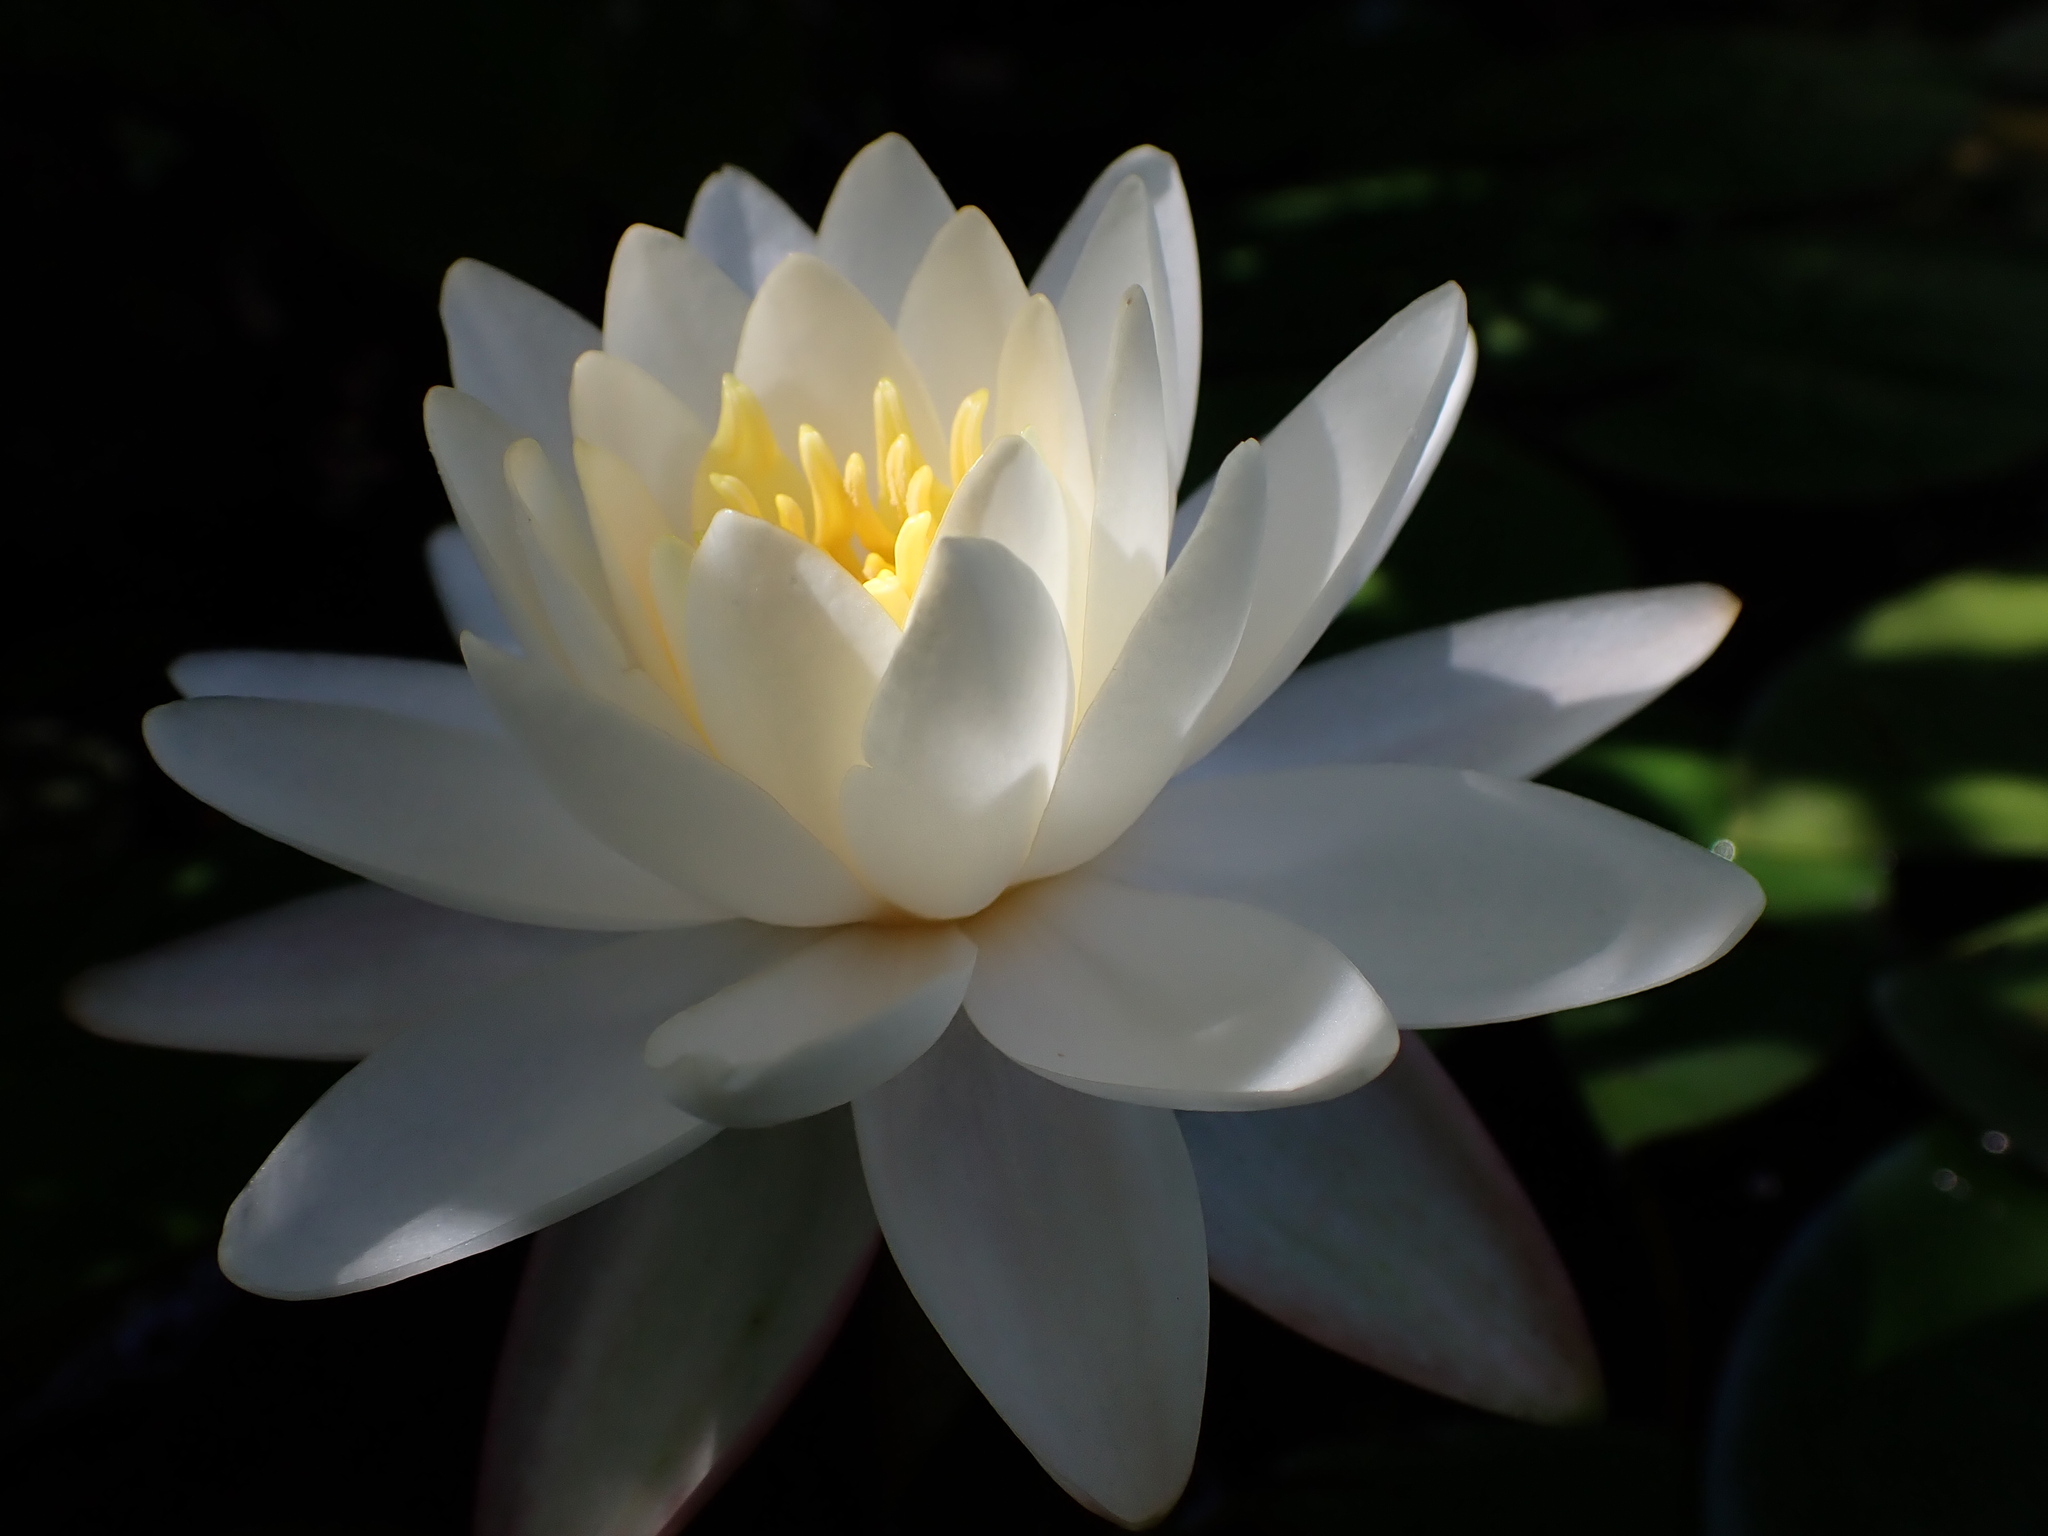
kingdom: Plantae
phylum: Tracheophyta
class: Magnoliopsida
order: Nymphaeales
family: Nymphaeaceae
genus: Nymphaea
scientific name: Nymphaea odorata
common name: Fragrant water-lily
